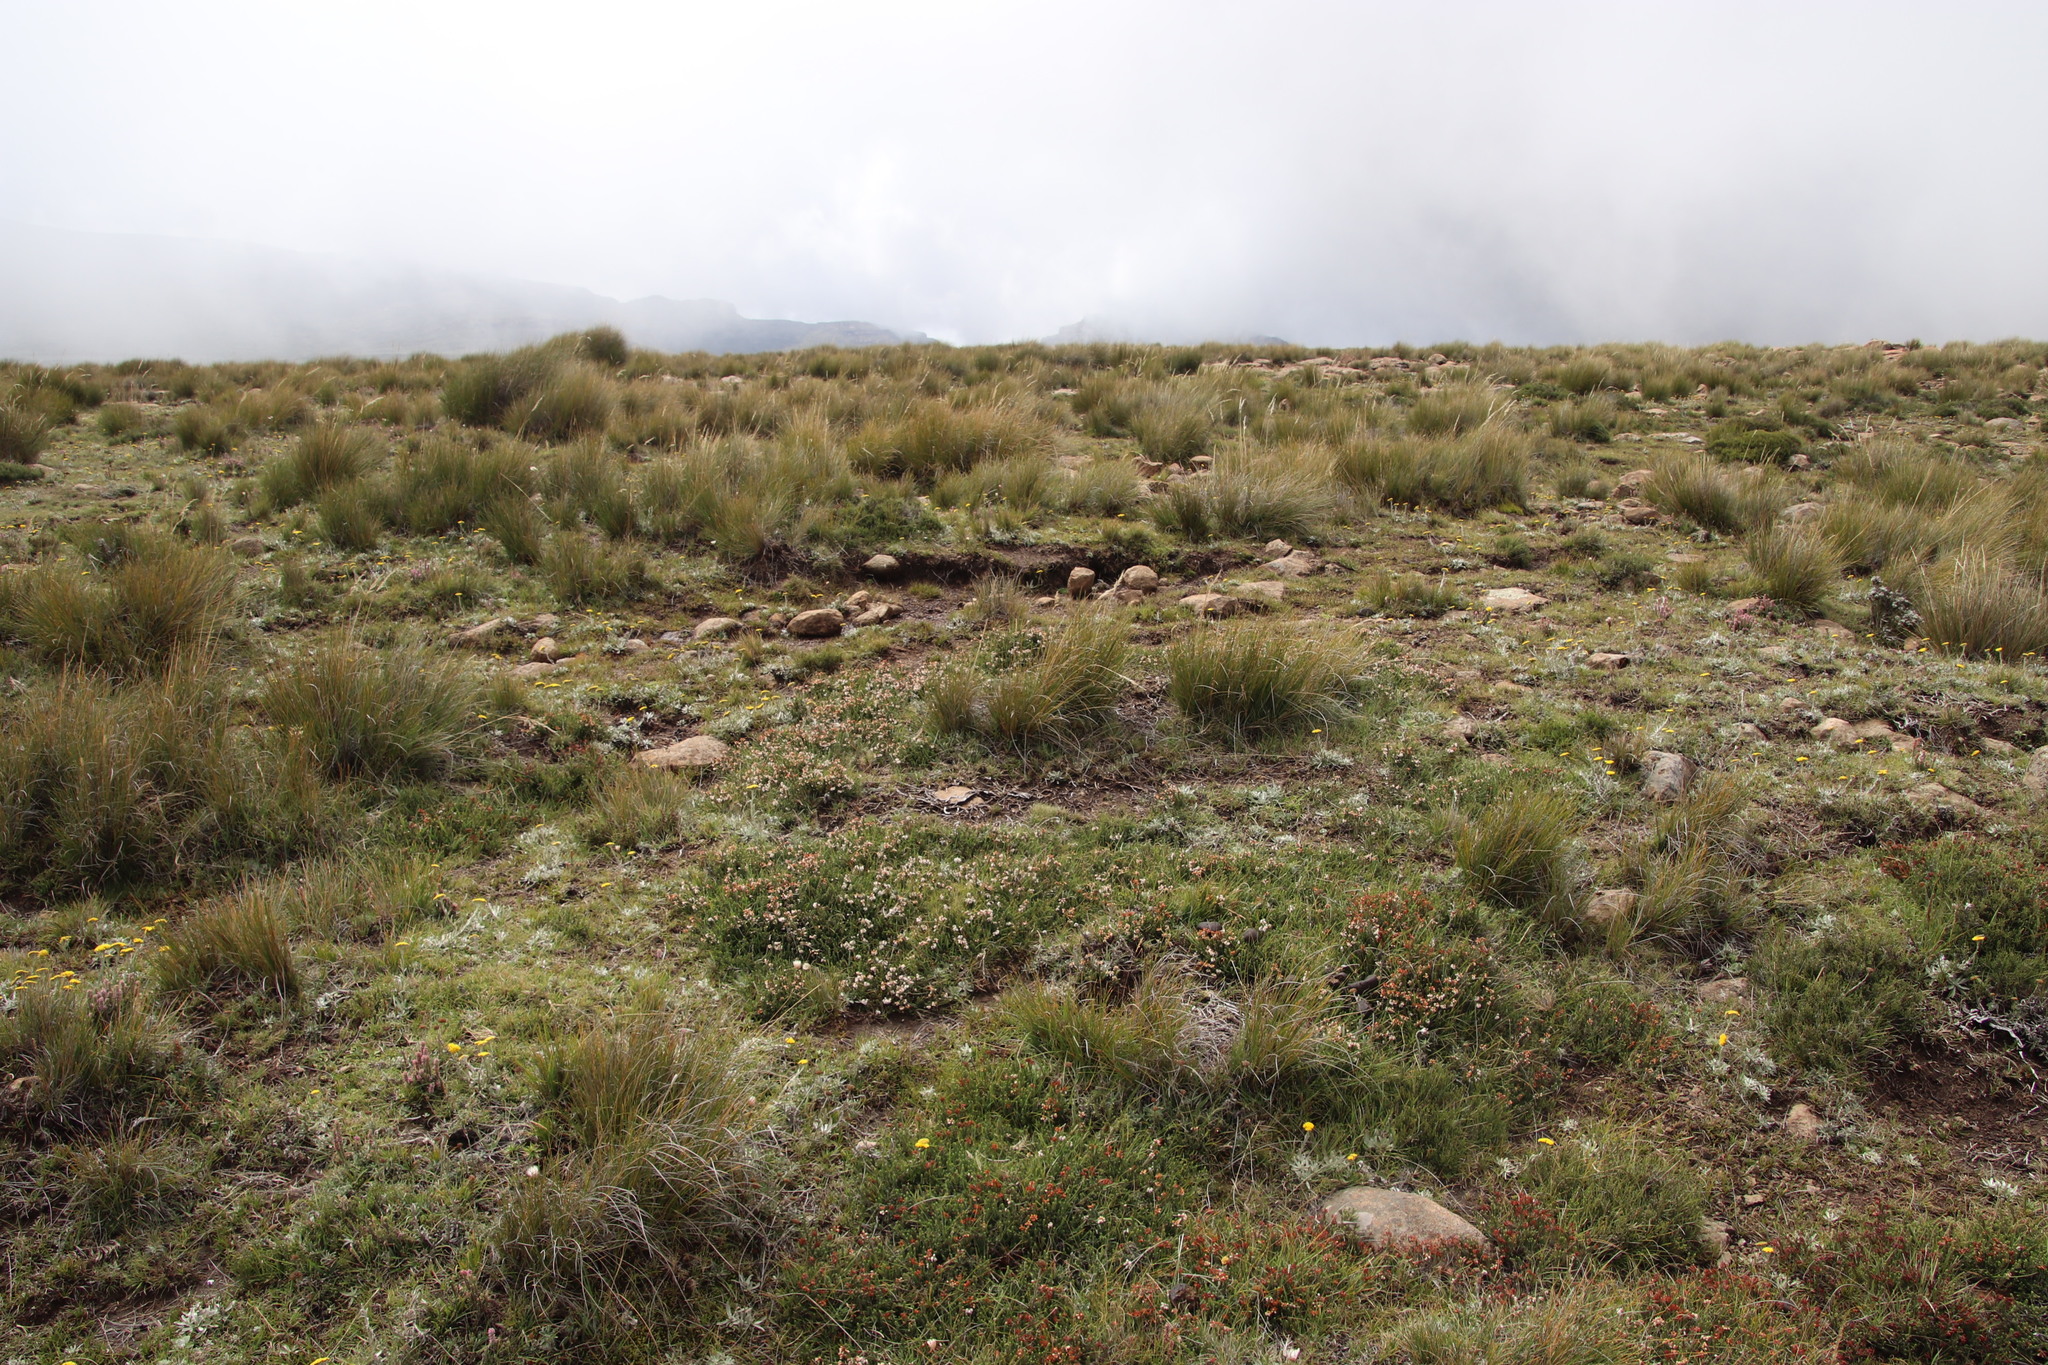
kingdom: Plantae
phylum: Tracheophyta
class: Magnoliopsida
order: Ericales
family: Ericaceae
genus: Erica
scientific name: Erica thodei
